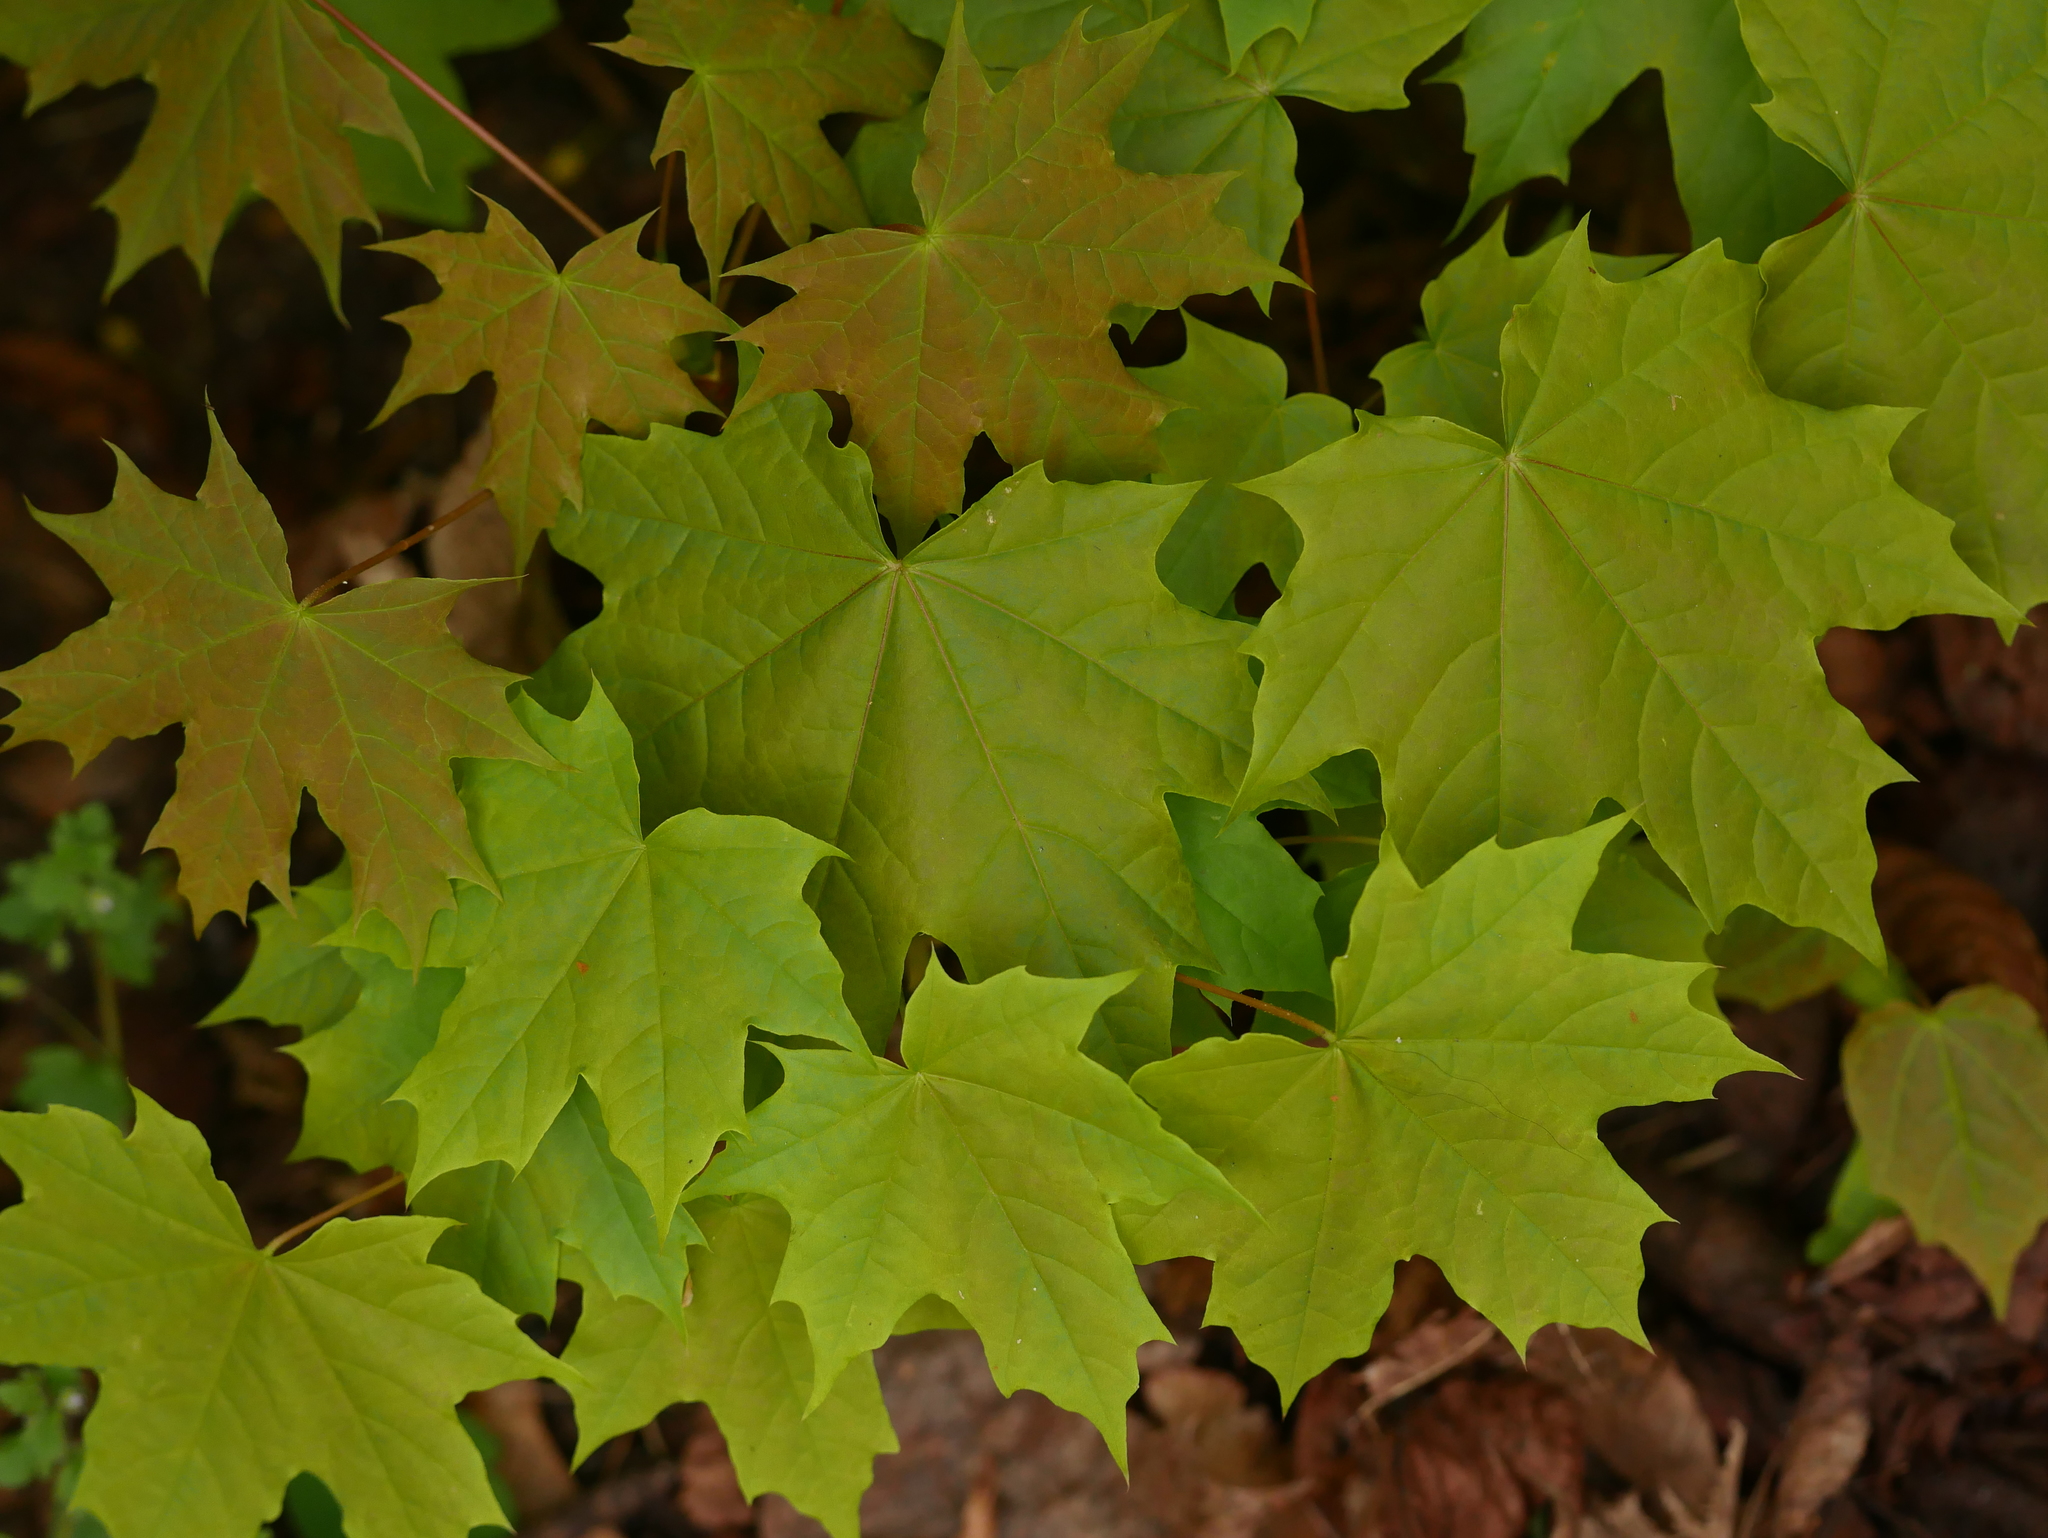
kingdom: Plantae
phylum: Tracheophyta
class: Magnoliopsida
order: Sapindales
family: Sapindaceae
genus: Acer
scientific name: Acer platanoides
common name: Norway maple
